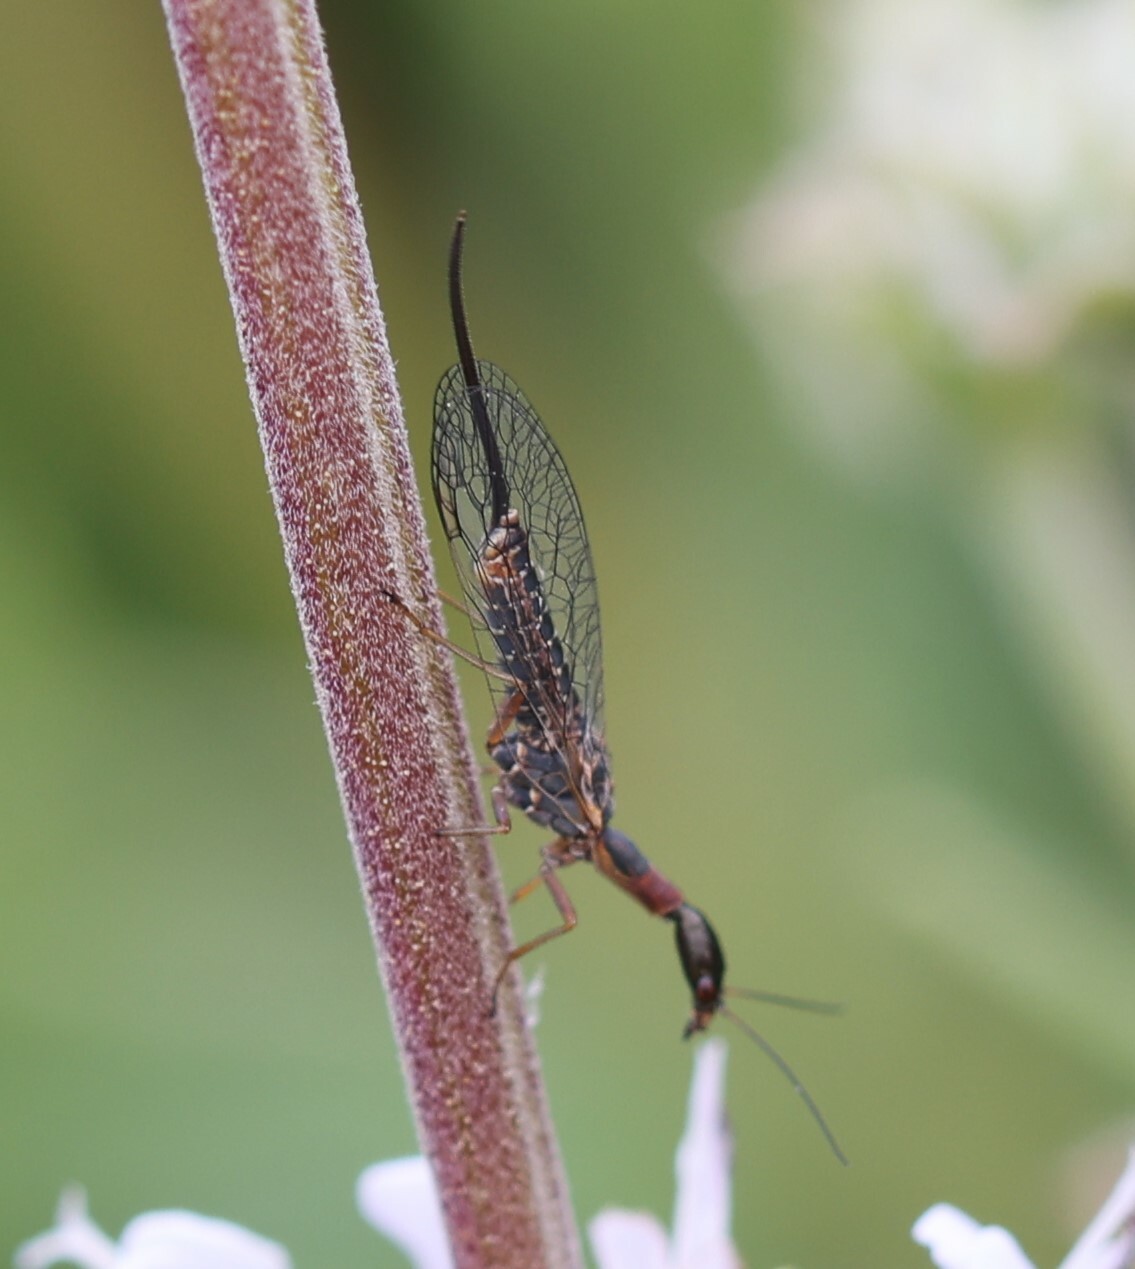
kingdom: Animalia
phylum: Arthropoda
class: Insecta
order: Raphidioptera
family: Raphidiidae
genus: Agulla
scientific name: Agulla bicolor
